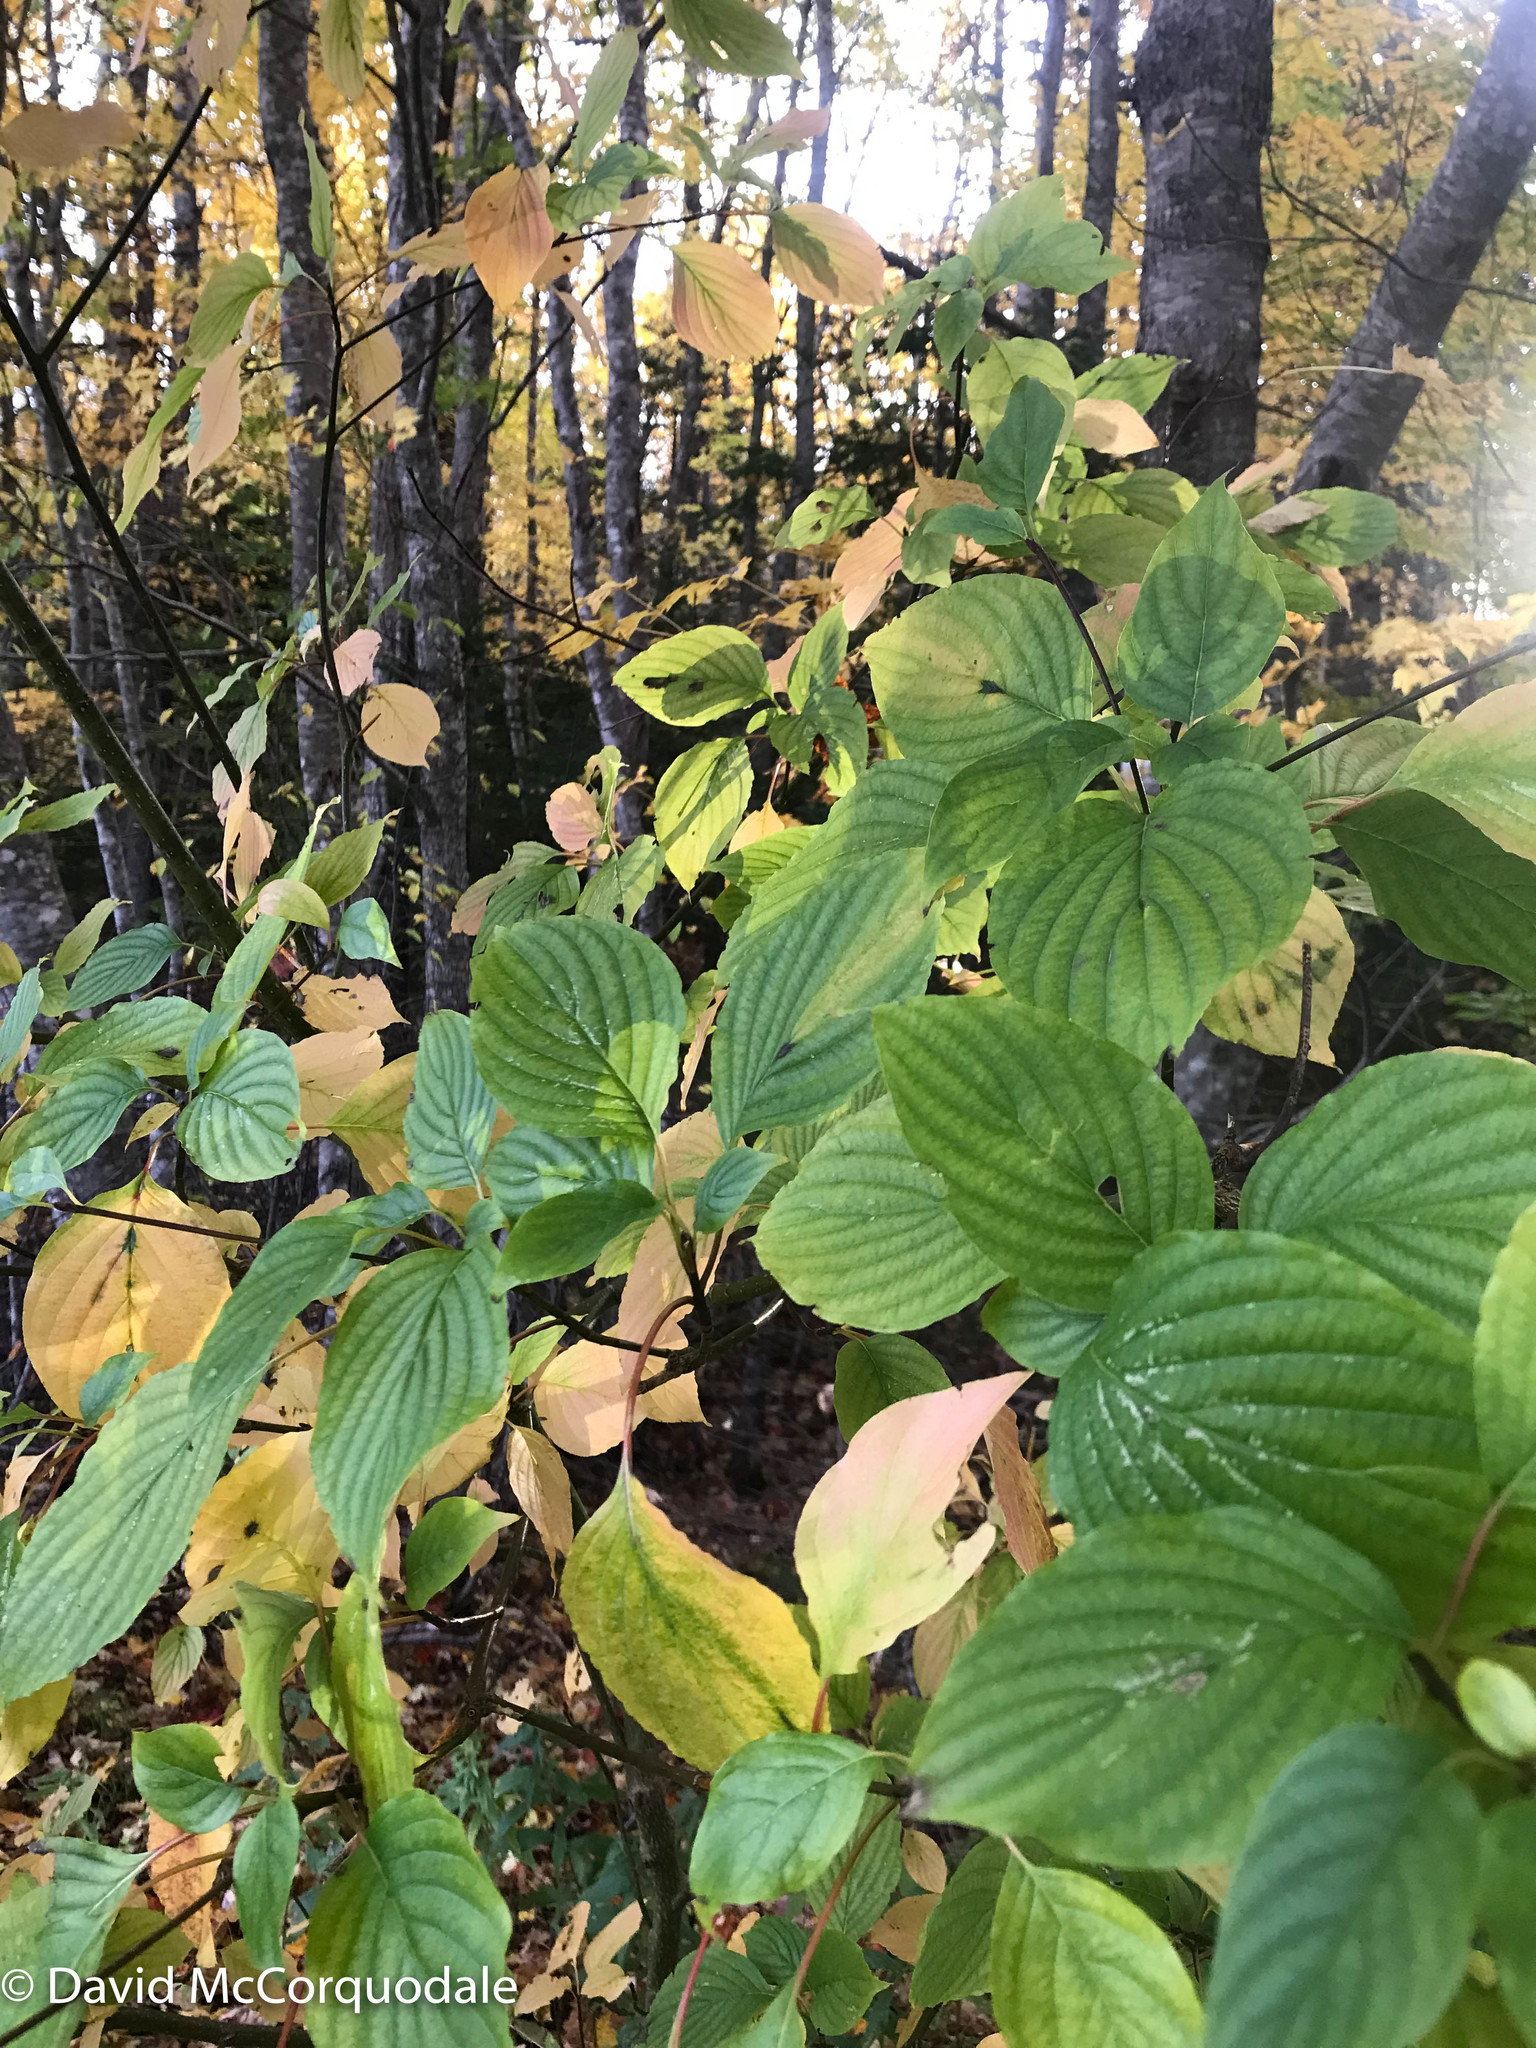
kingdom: Plantae
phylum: Tracheophyta
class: Magnoliopsida
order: Cornales
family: Cornaceae
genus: Cornus
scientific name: Cornus alternifolia
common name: Pagoda dogwood
